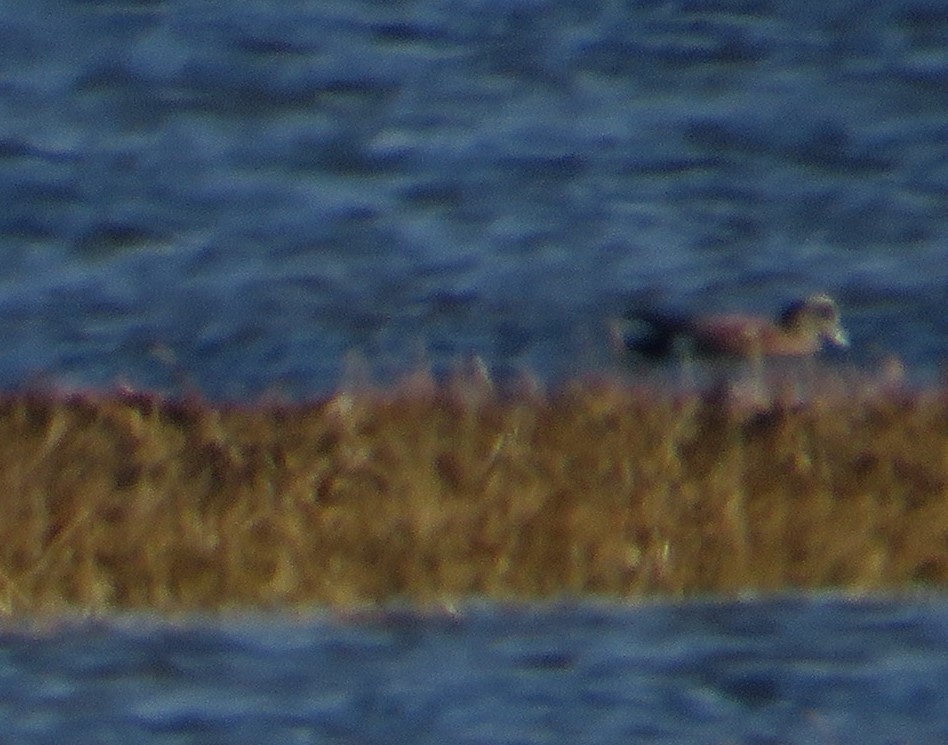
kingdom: Animalia
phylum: Chordata
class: Aves
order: Anseriformes
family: Anatidae
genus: Mareca
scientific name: Mareca americana
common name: American wigeon
